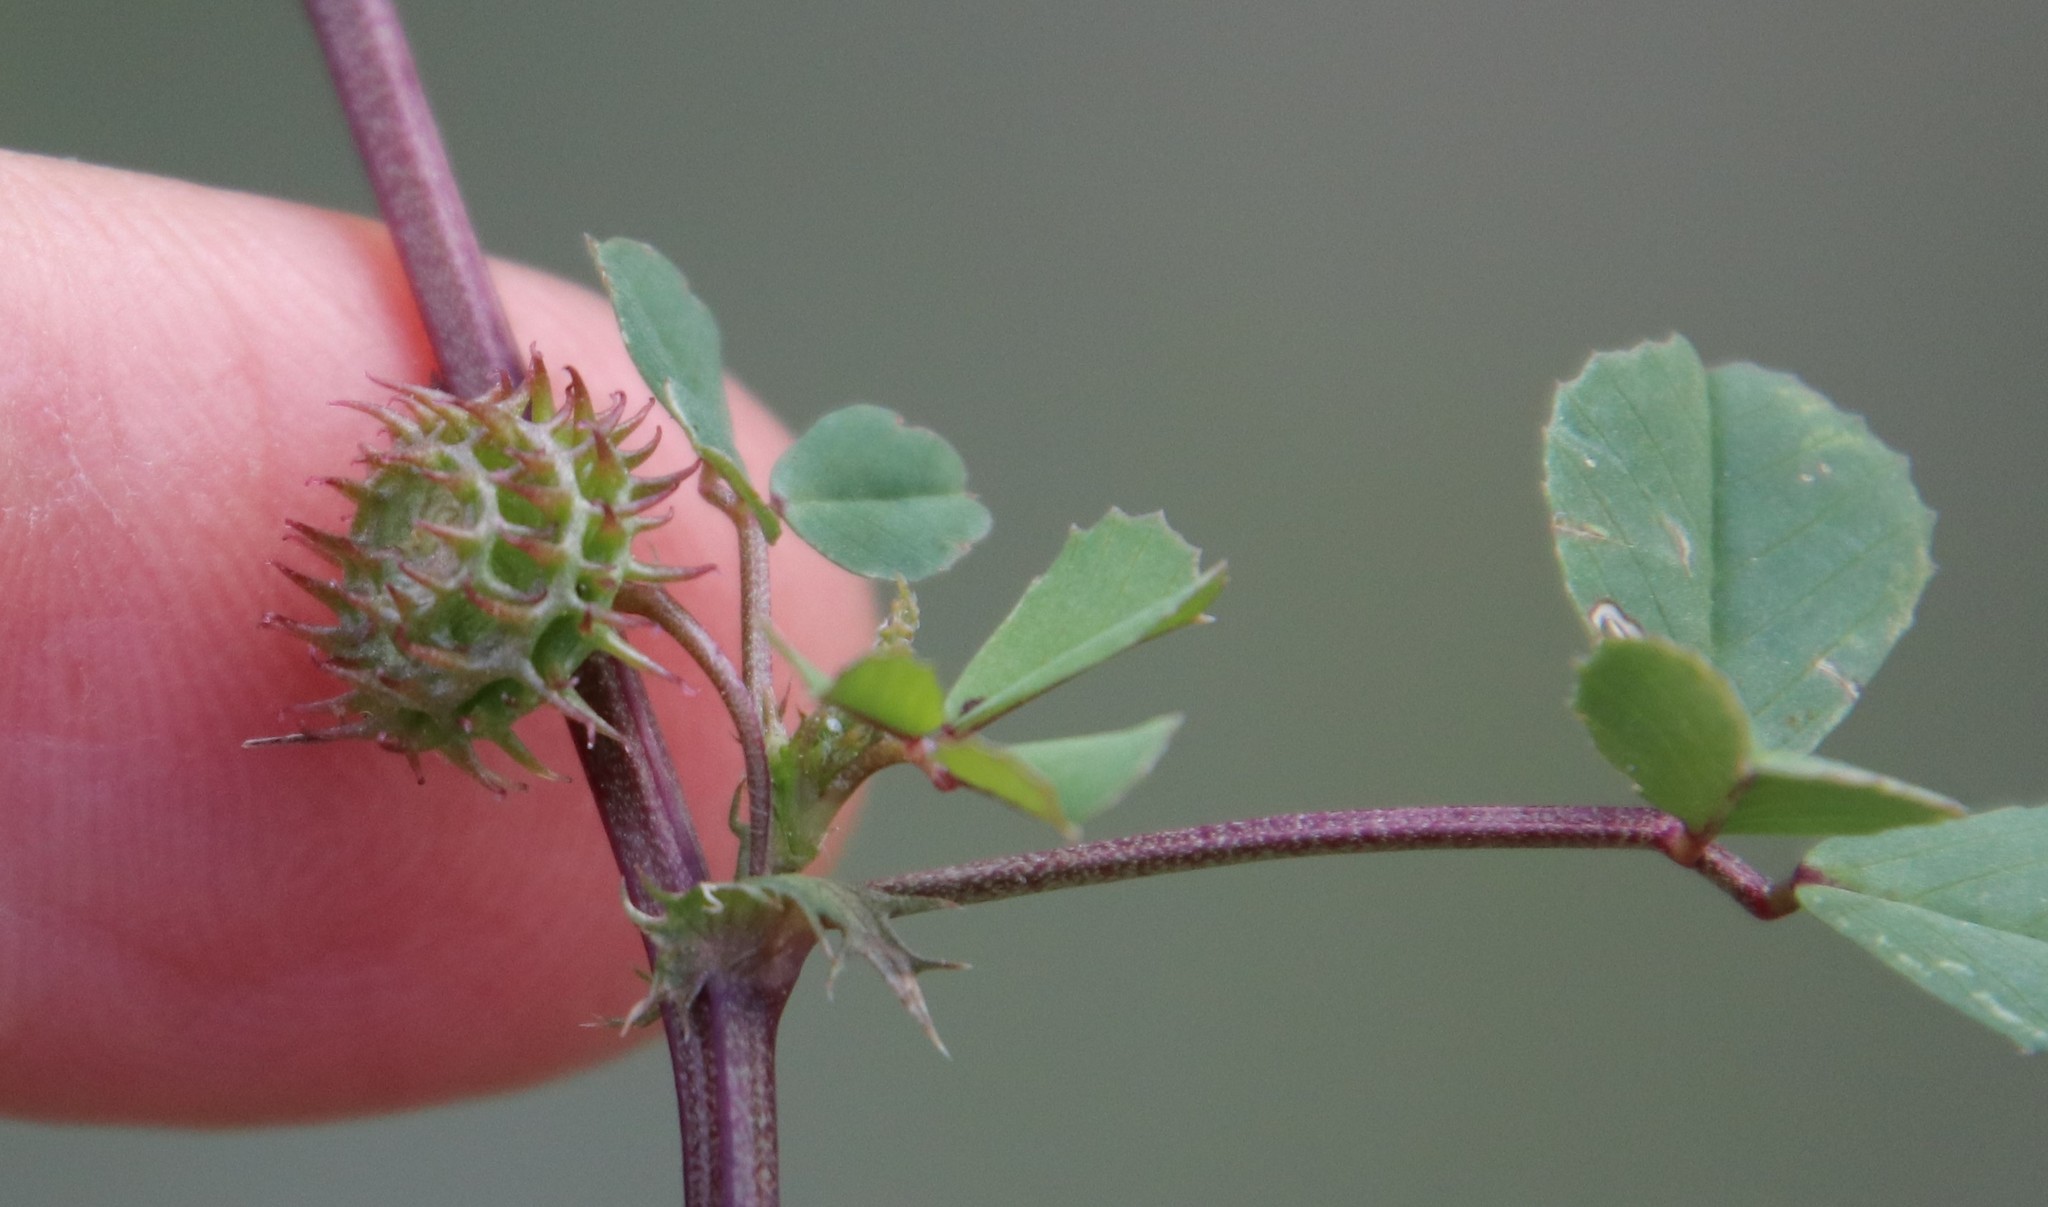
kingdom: Plantae
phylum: Tracheophyta
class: Magnoliopsida
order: Fabales
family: Fabaceae
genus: Medicago
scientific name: Medicago polymorpha
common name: Burclover
